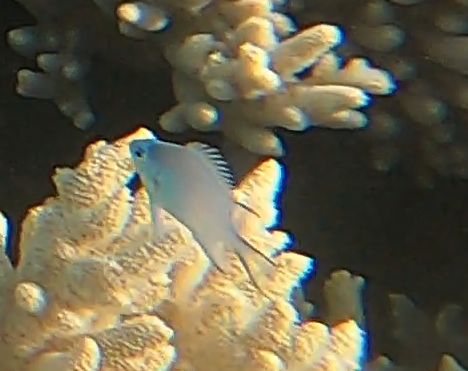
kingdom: Animalia
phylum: Chordata
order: Perciformes
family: Pomacentridae
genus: Amblyglyphidodon
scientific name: Amblyglyphidodon indicus
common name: Maldives damselfish
